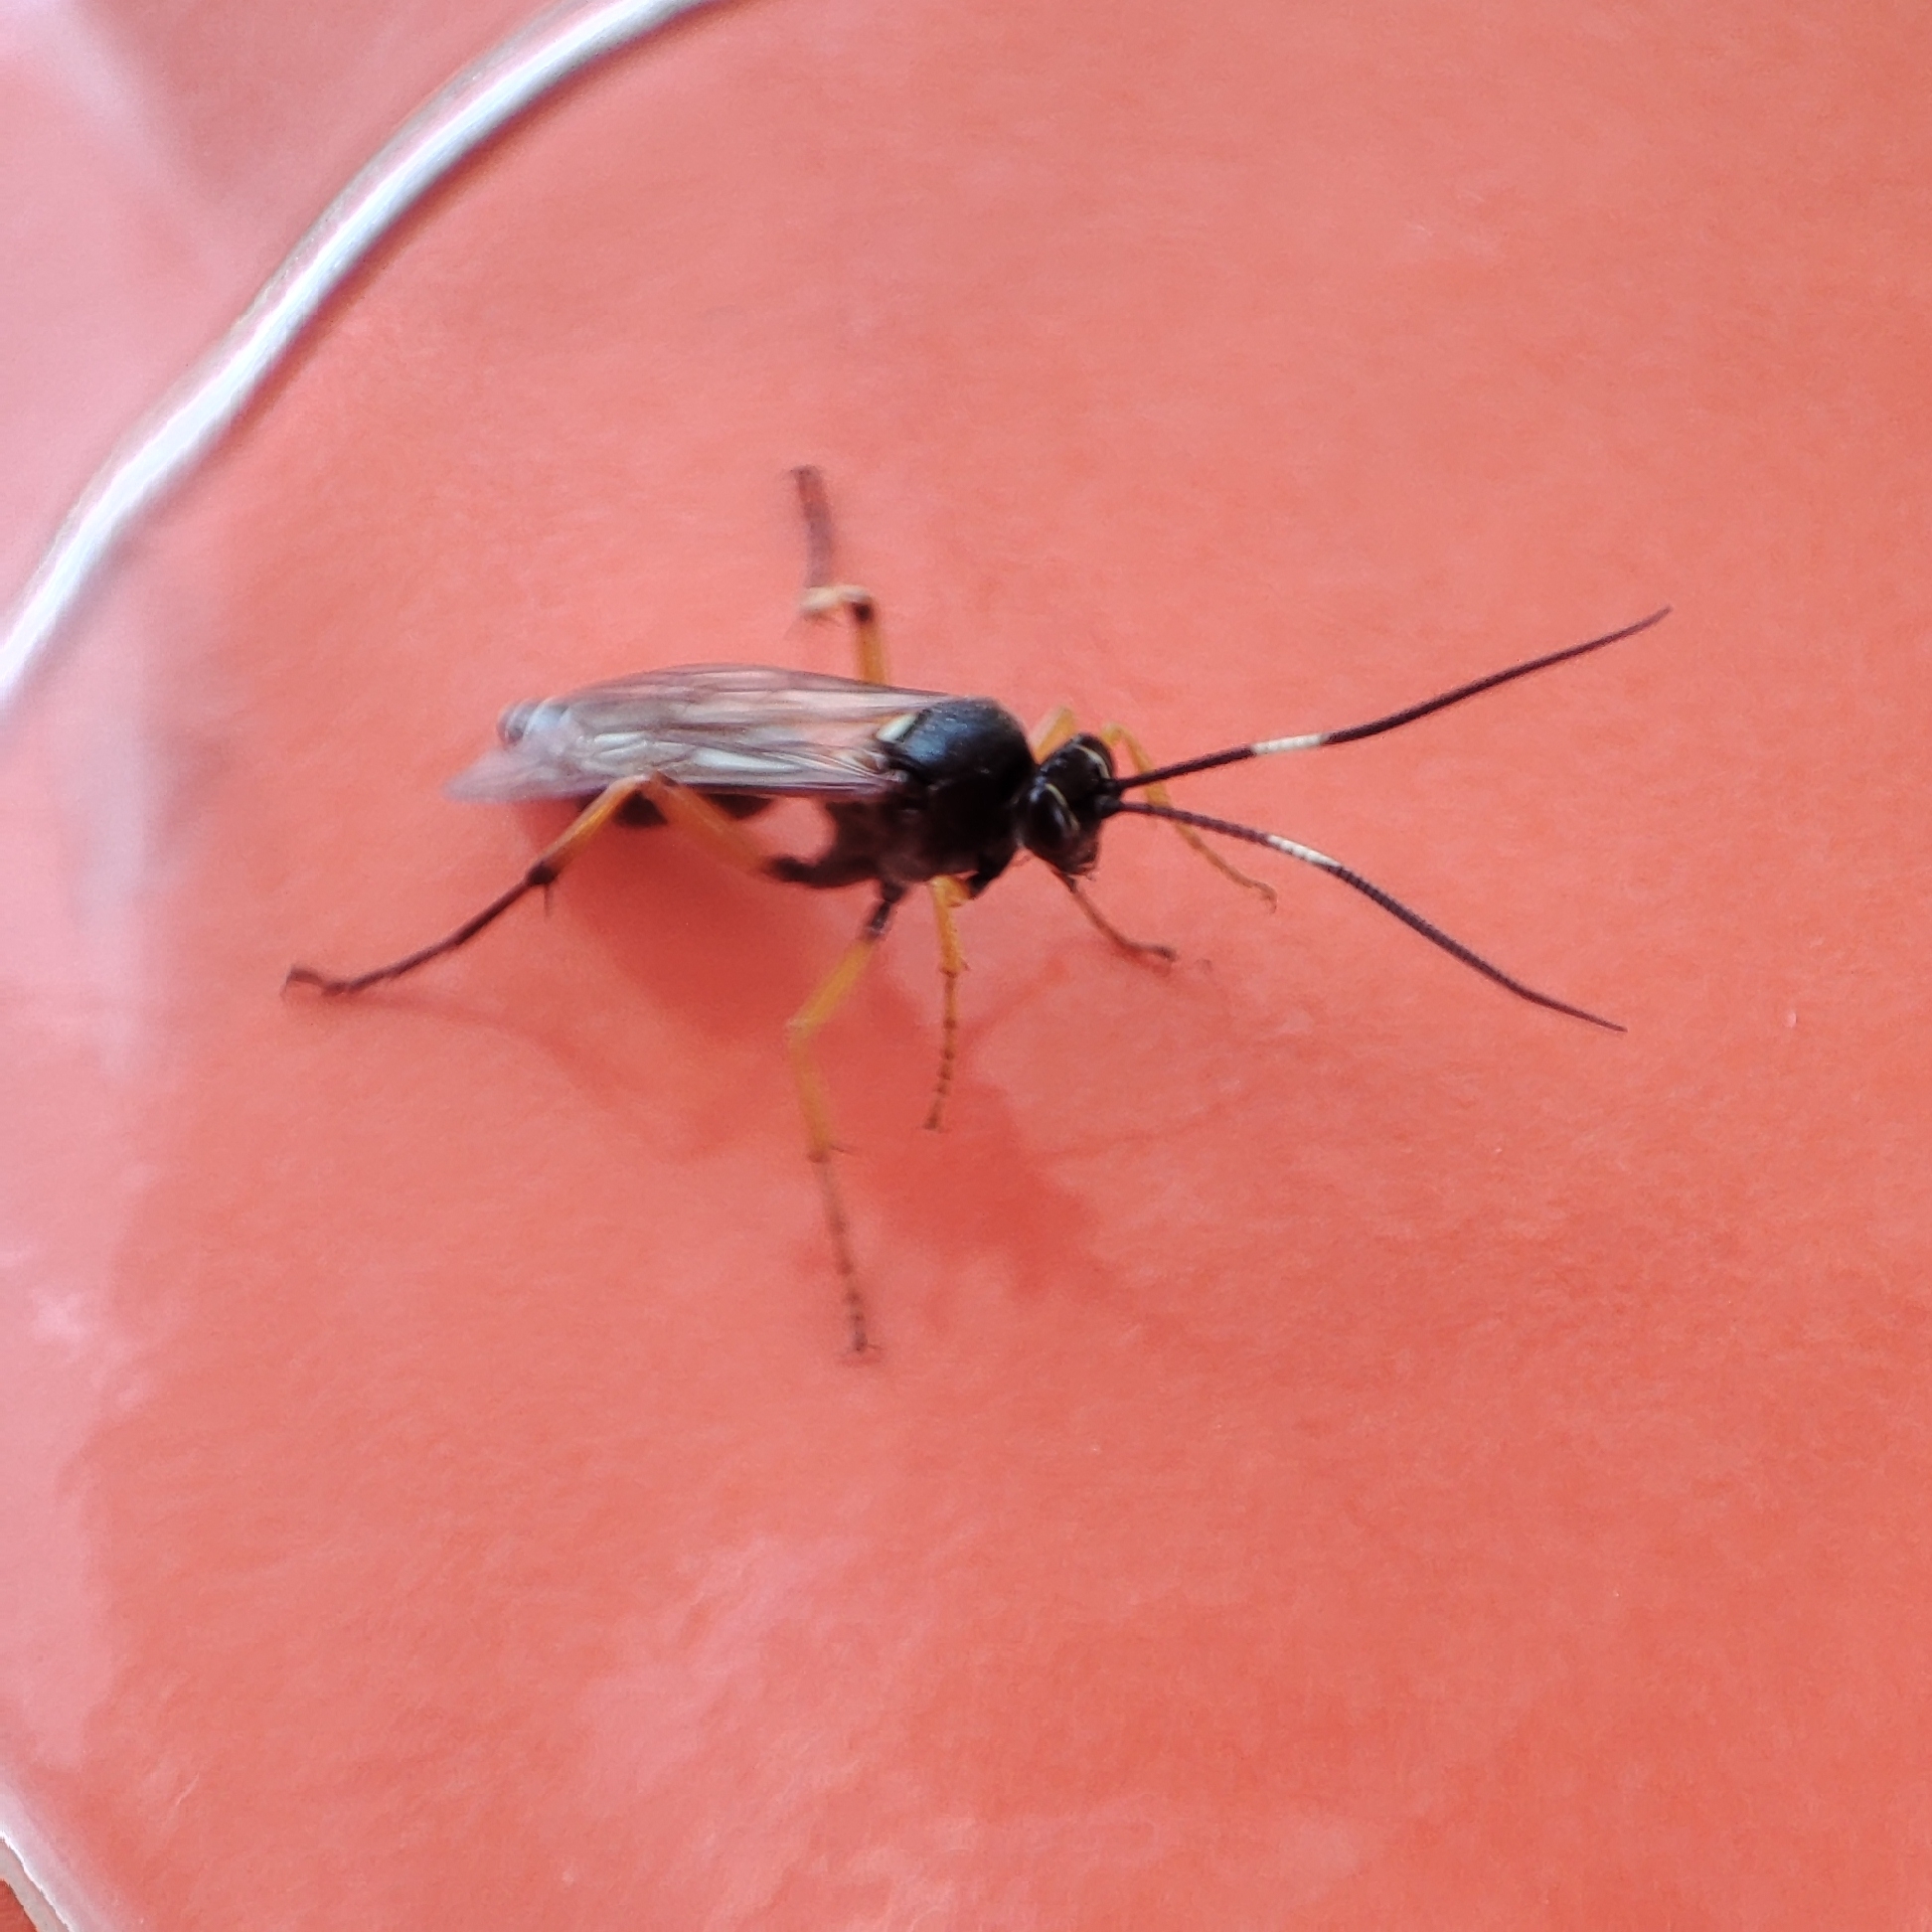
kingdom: Animalia
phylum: Arthropoda
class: Insecta
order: Hymenoptera
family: Ichneumonidae
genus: Diphyus
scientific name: Diphyus quadripunctorius
